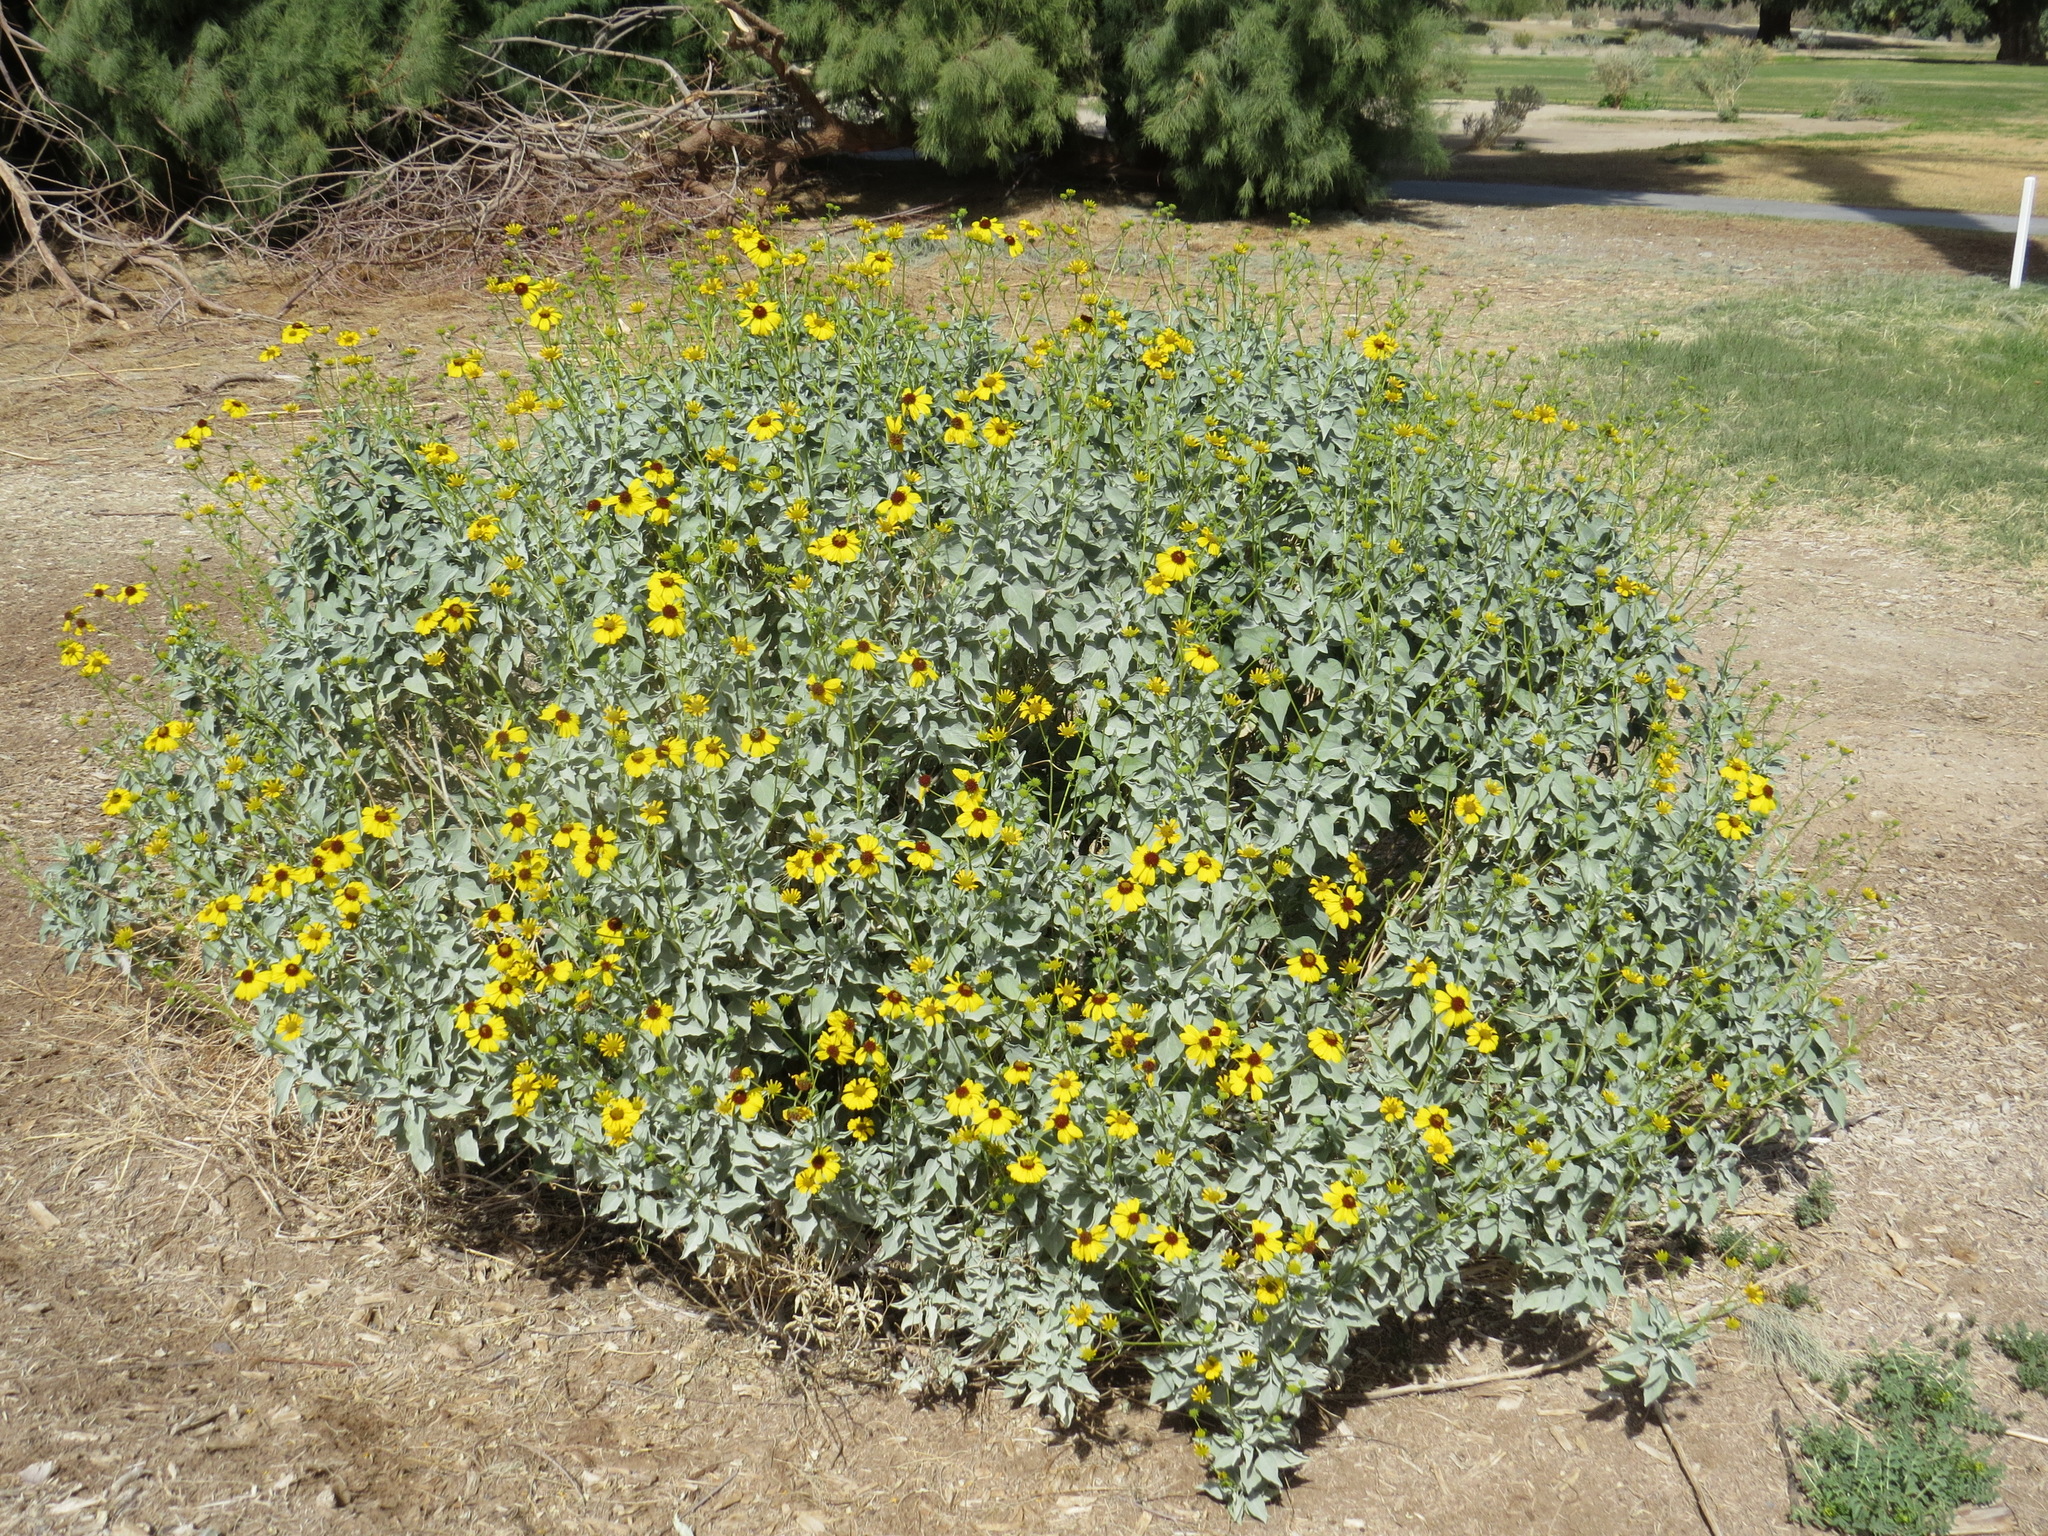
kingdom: Plantae
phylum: Tracheophyta
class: Magnoliopsida
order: Asterales
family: Asteraceae
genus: Encelia
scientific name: Encelia farinosa
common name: Brittlebush
